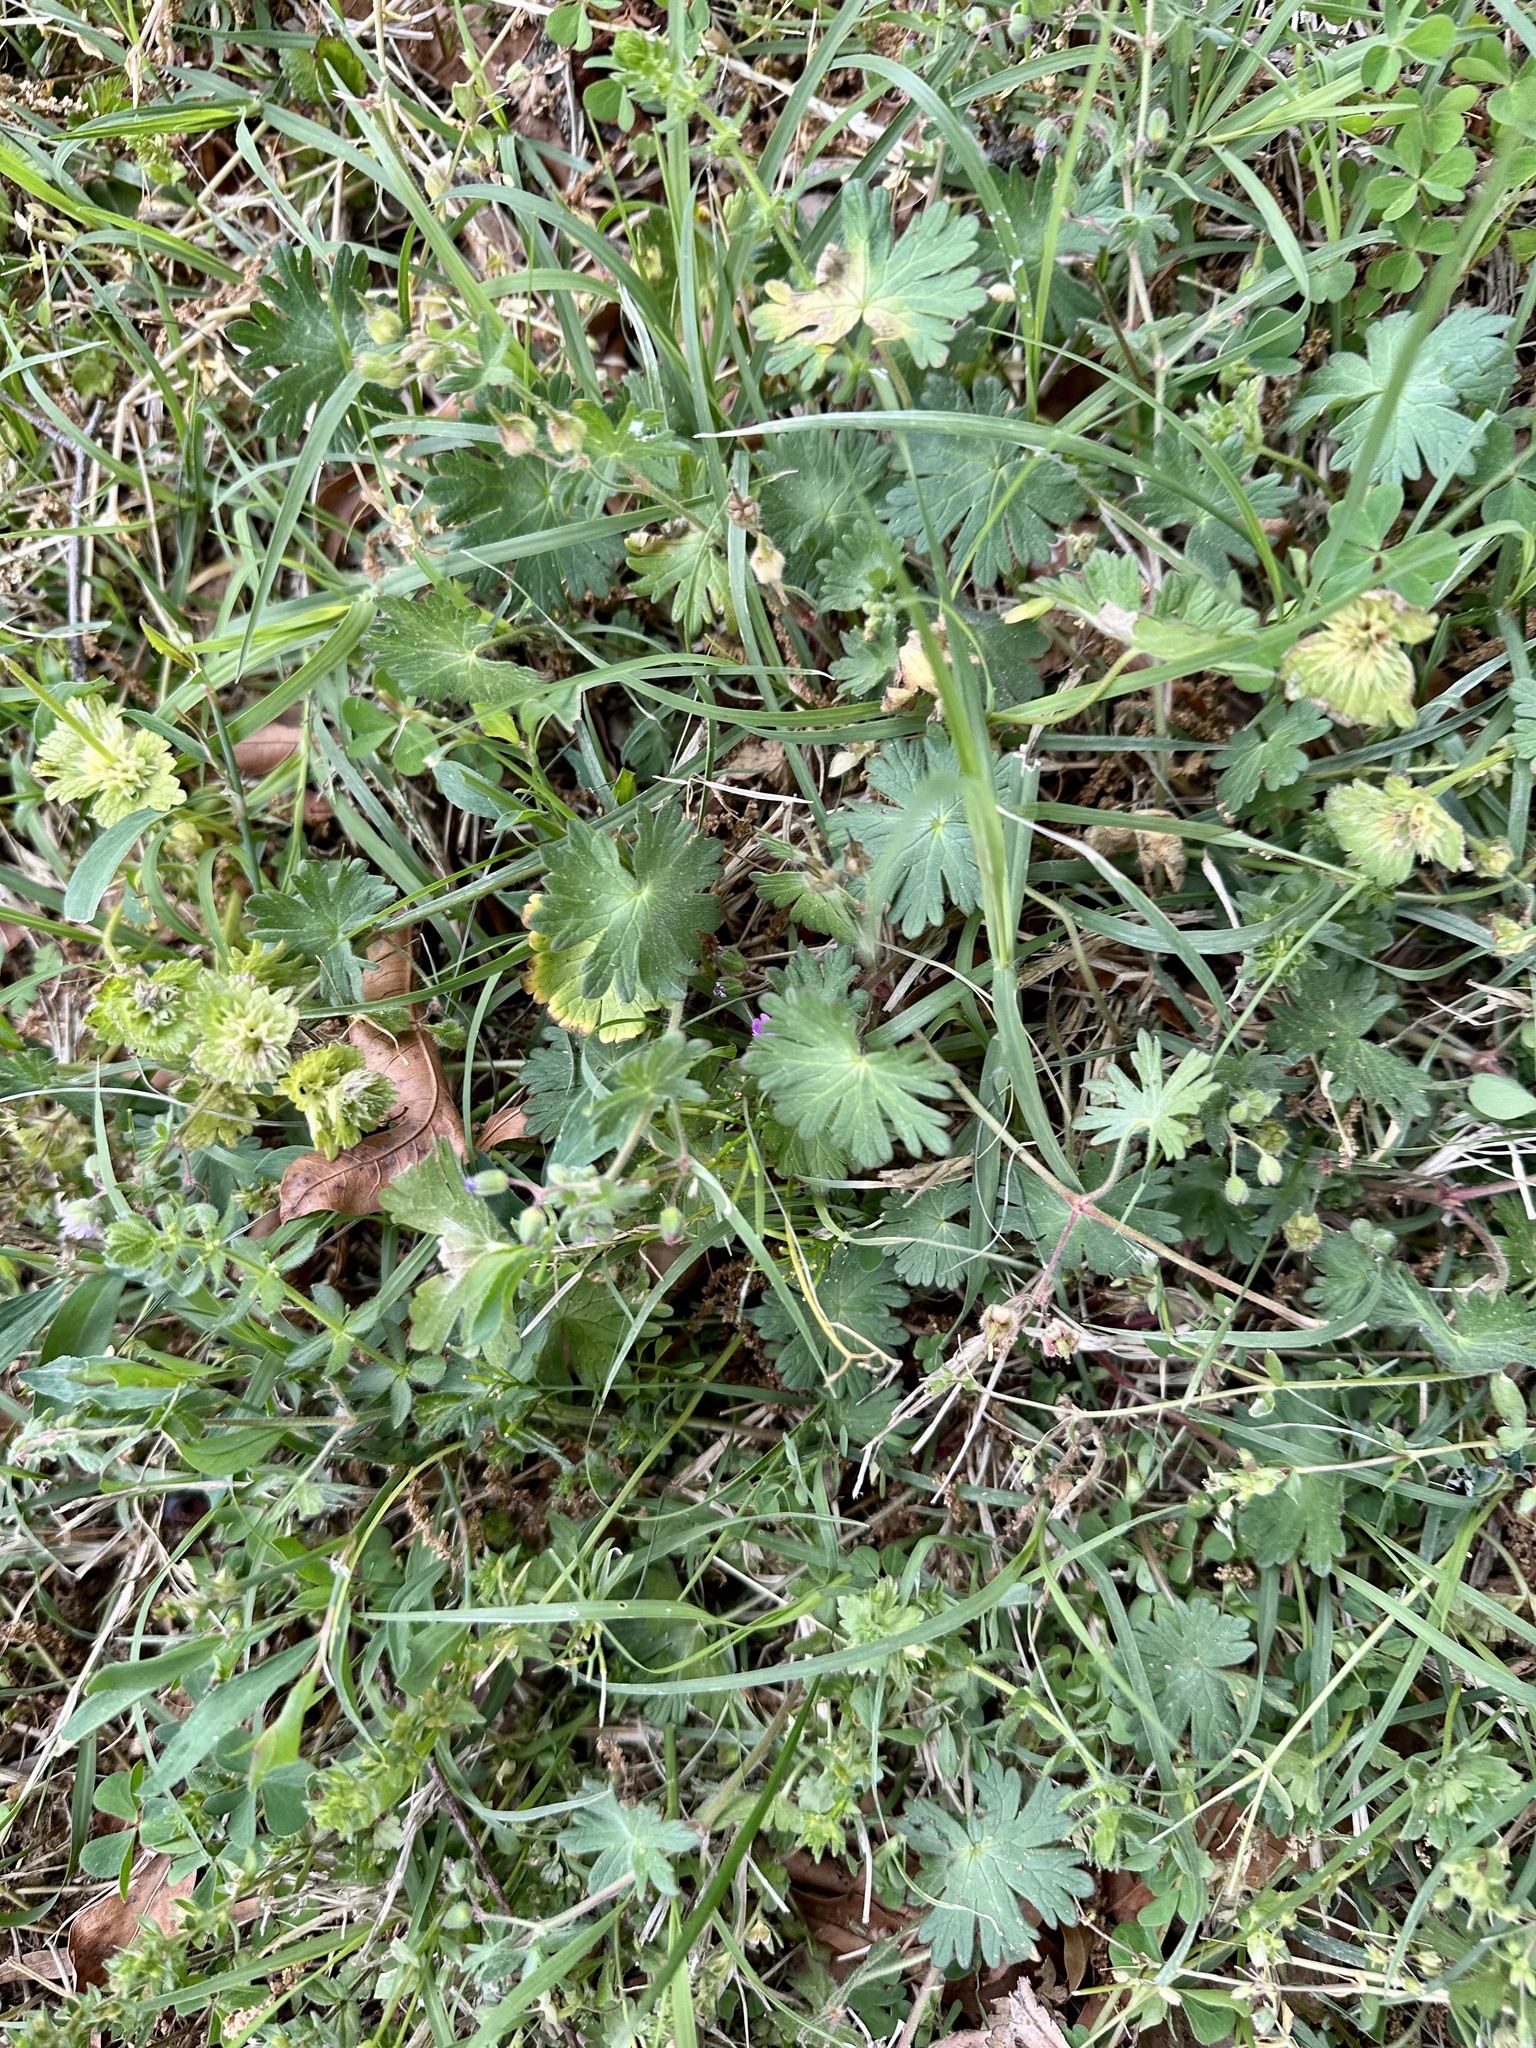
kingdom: Plantae
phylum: Tracheophyta
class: Magnoliopsida
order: Geraniales
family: Geraniaceae
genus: Geranium
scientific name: Geranium molle
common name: Dove's-foot crane's-bill
